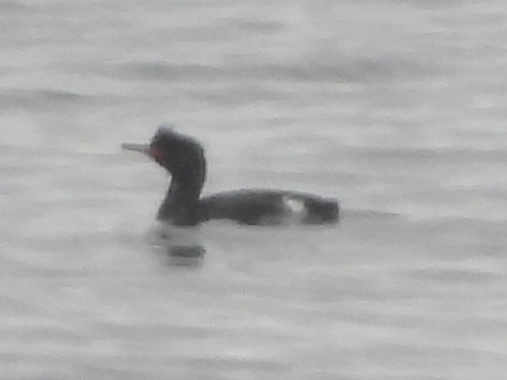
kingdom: Animalia
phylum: Chordata
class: Aves
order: Suliformes
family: Phalacrocoracidae
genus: Phalacrocorax
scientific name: Phalacrocorax pelagicus
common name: Pelagic cormorant
